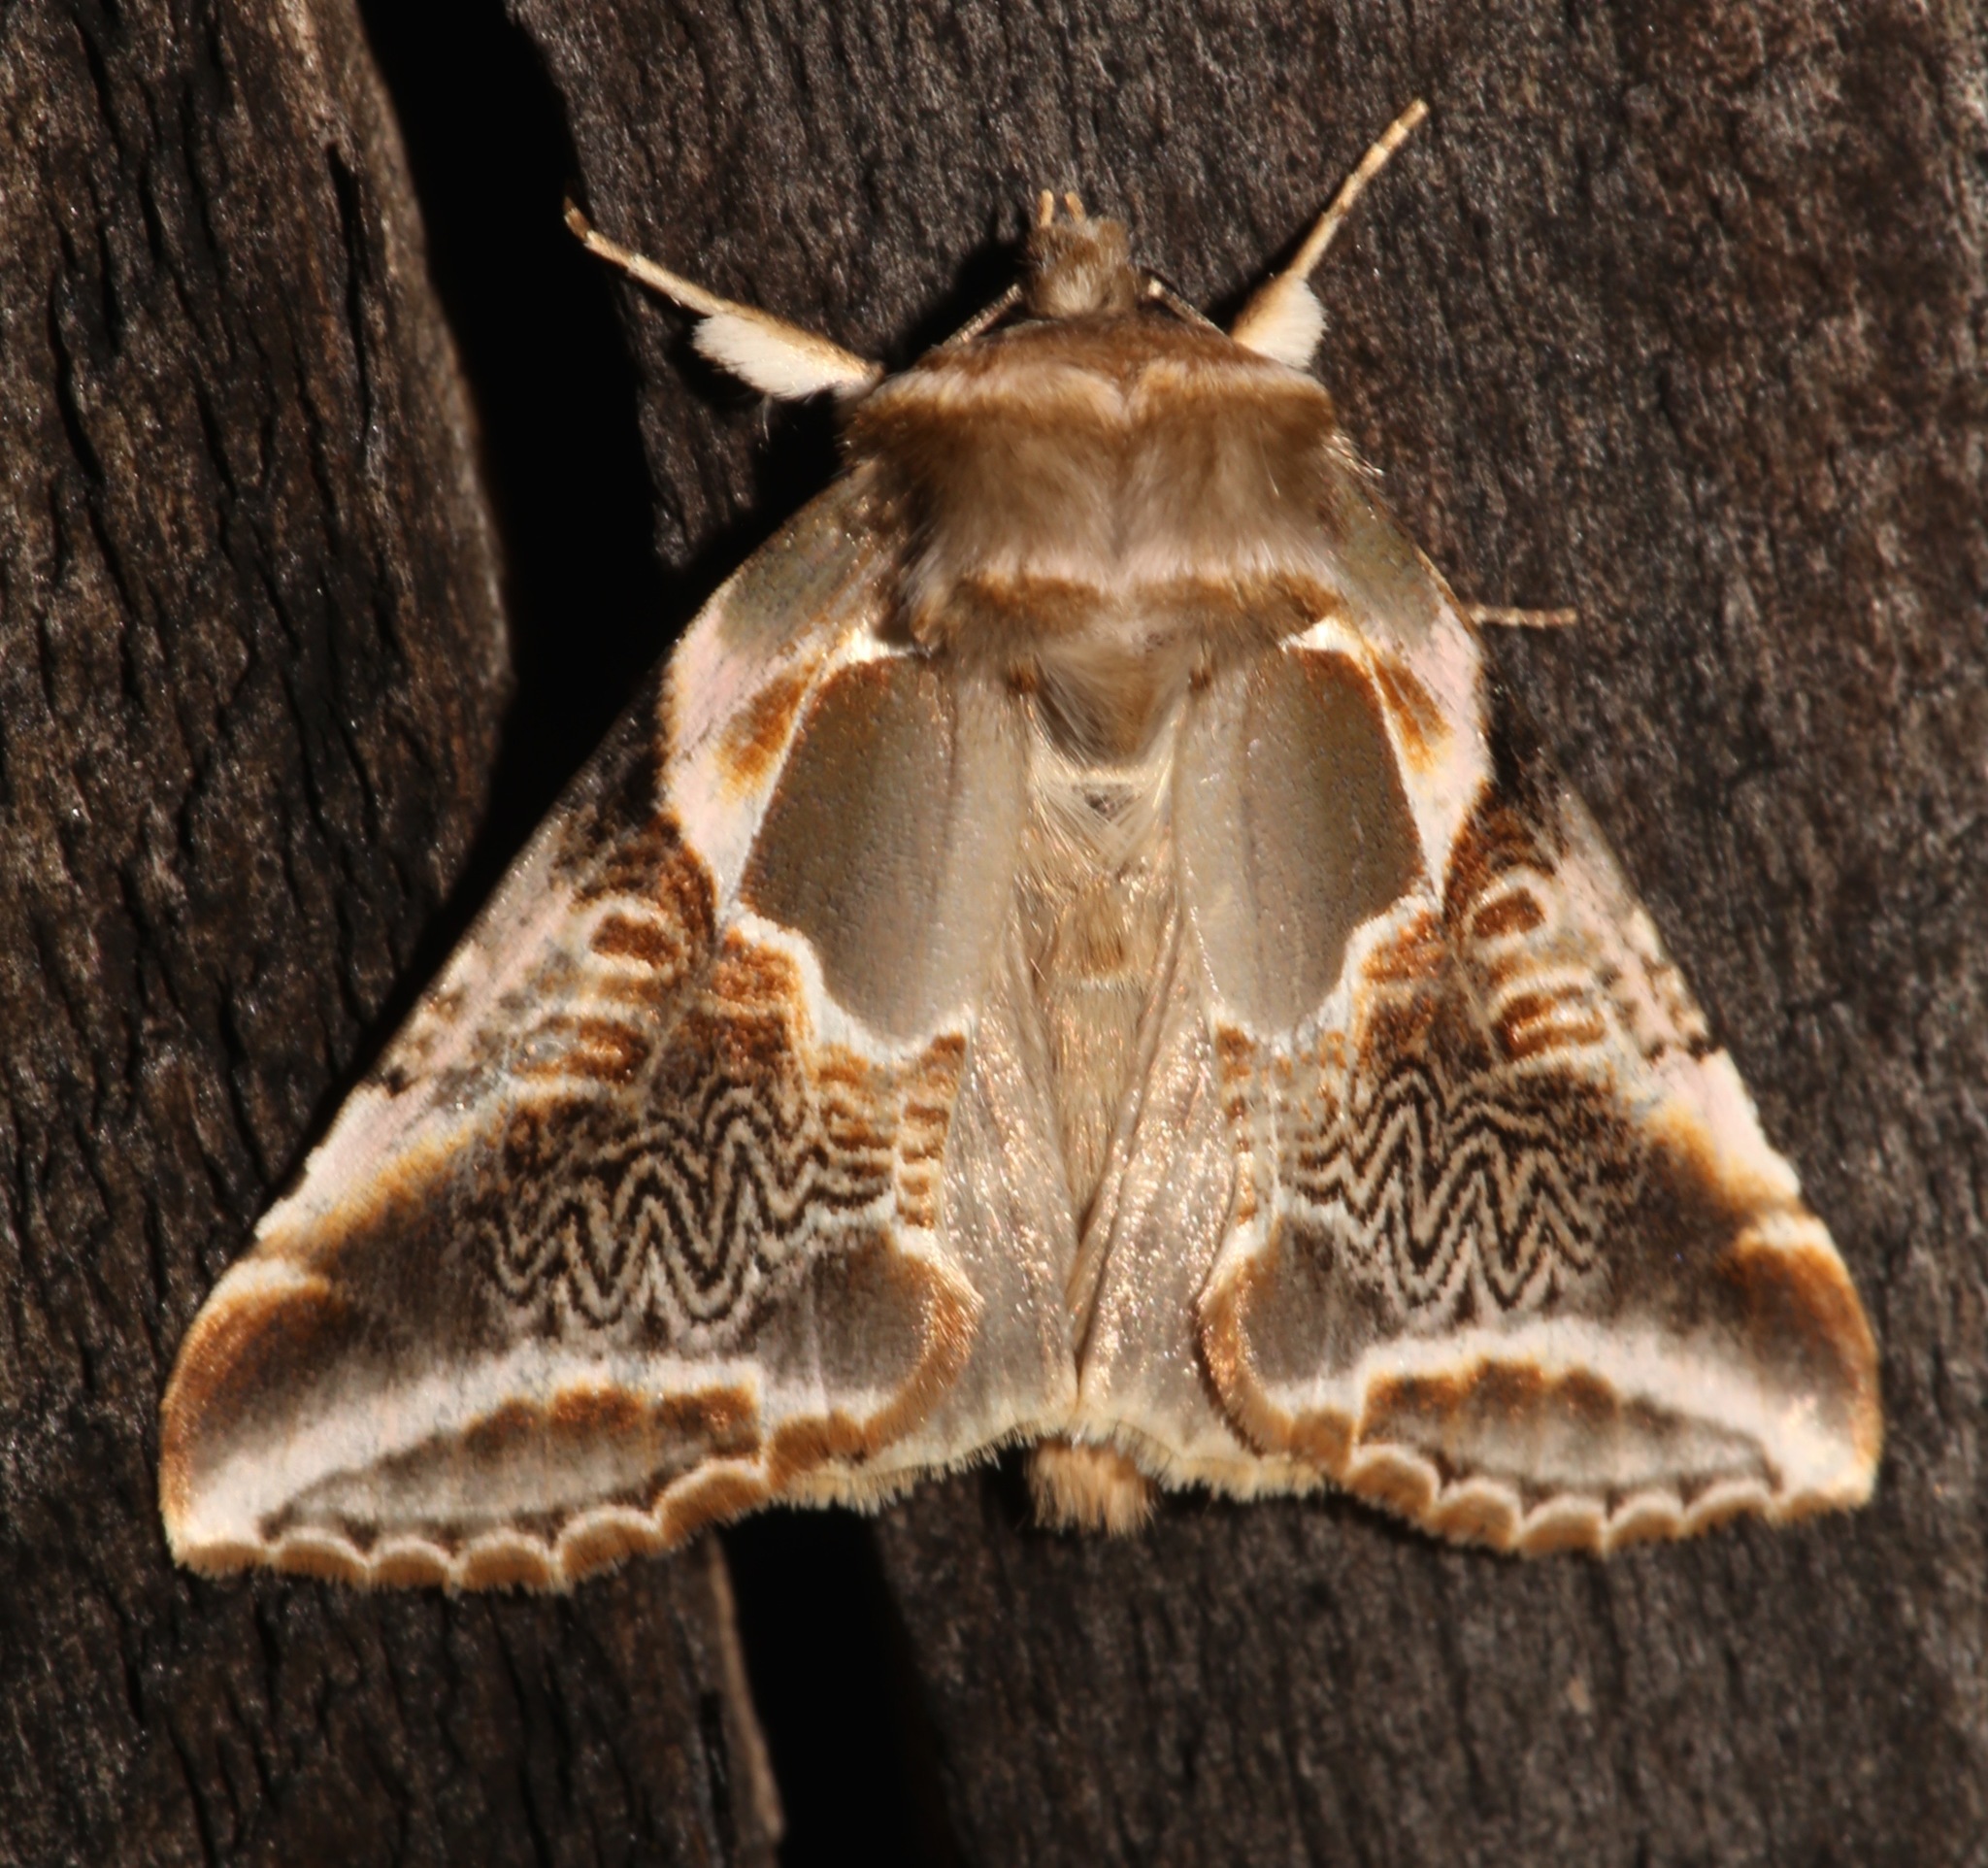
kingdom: Animalia
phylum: Arthropoda
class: Insecta
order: Lepidoptera
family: Drepanidae
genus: Habrosyne
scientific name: Habrosyne scripta
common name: Lettered habrosyne moth
